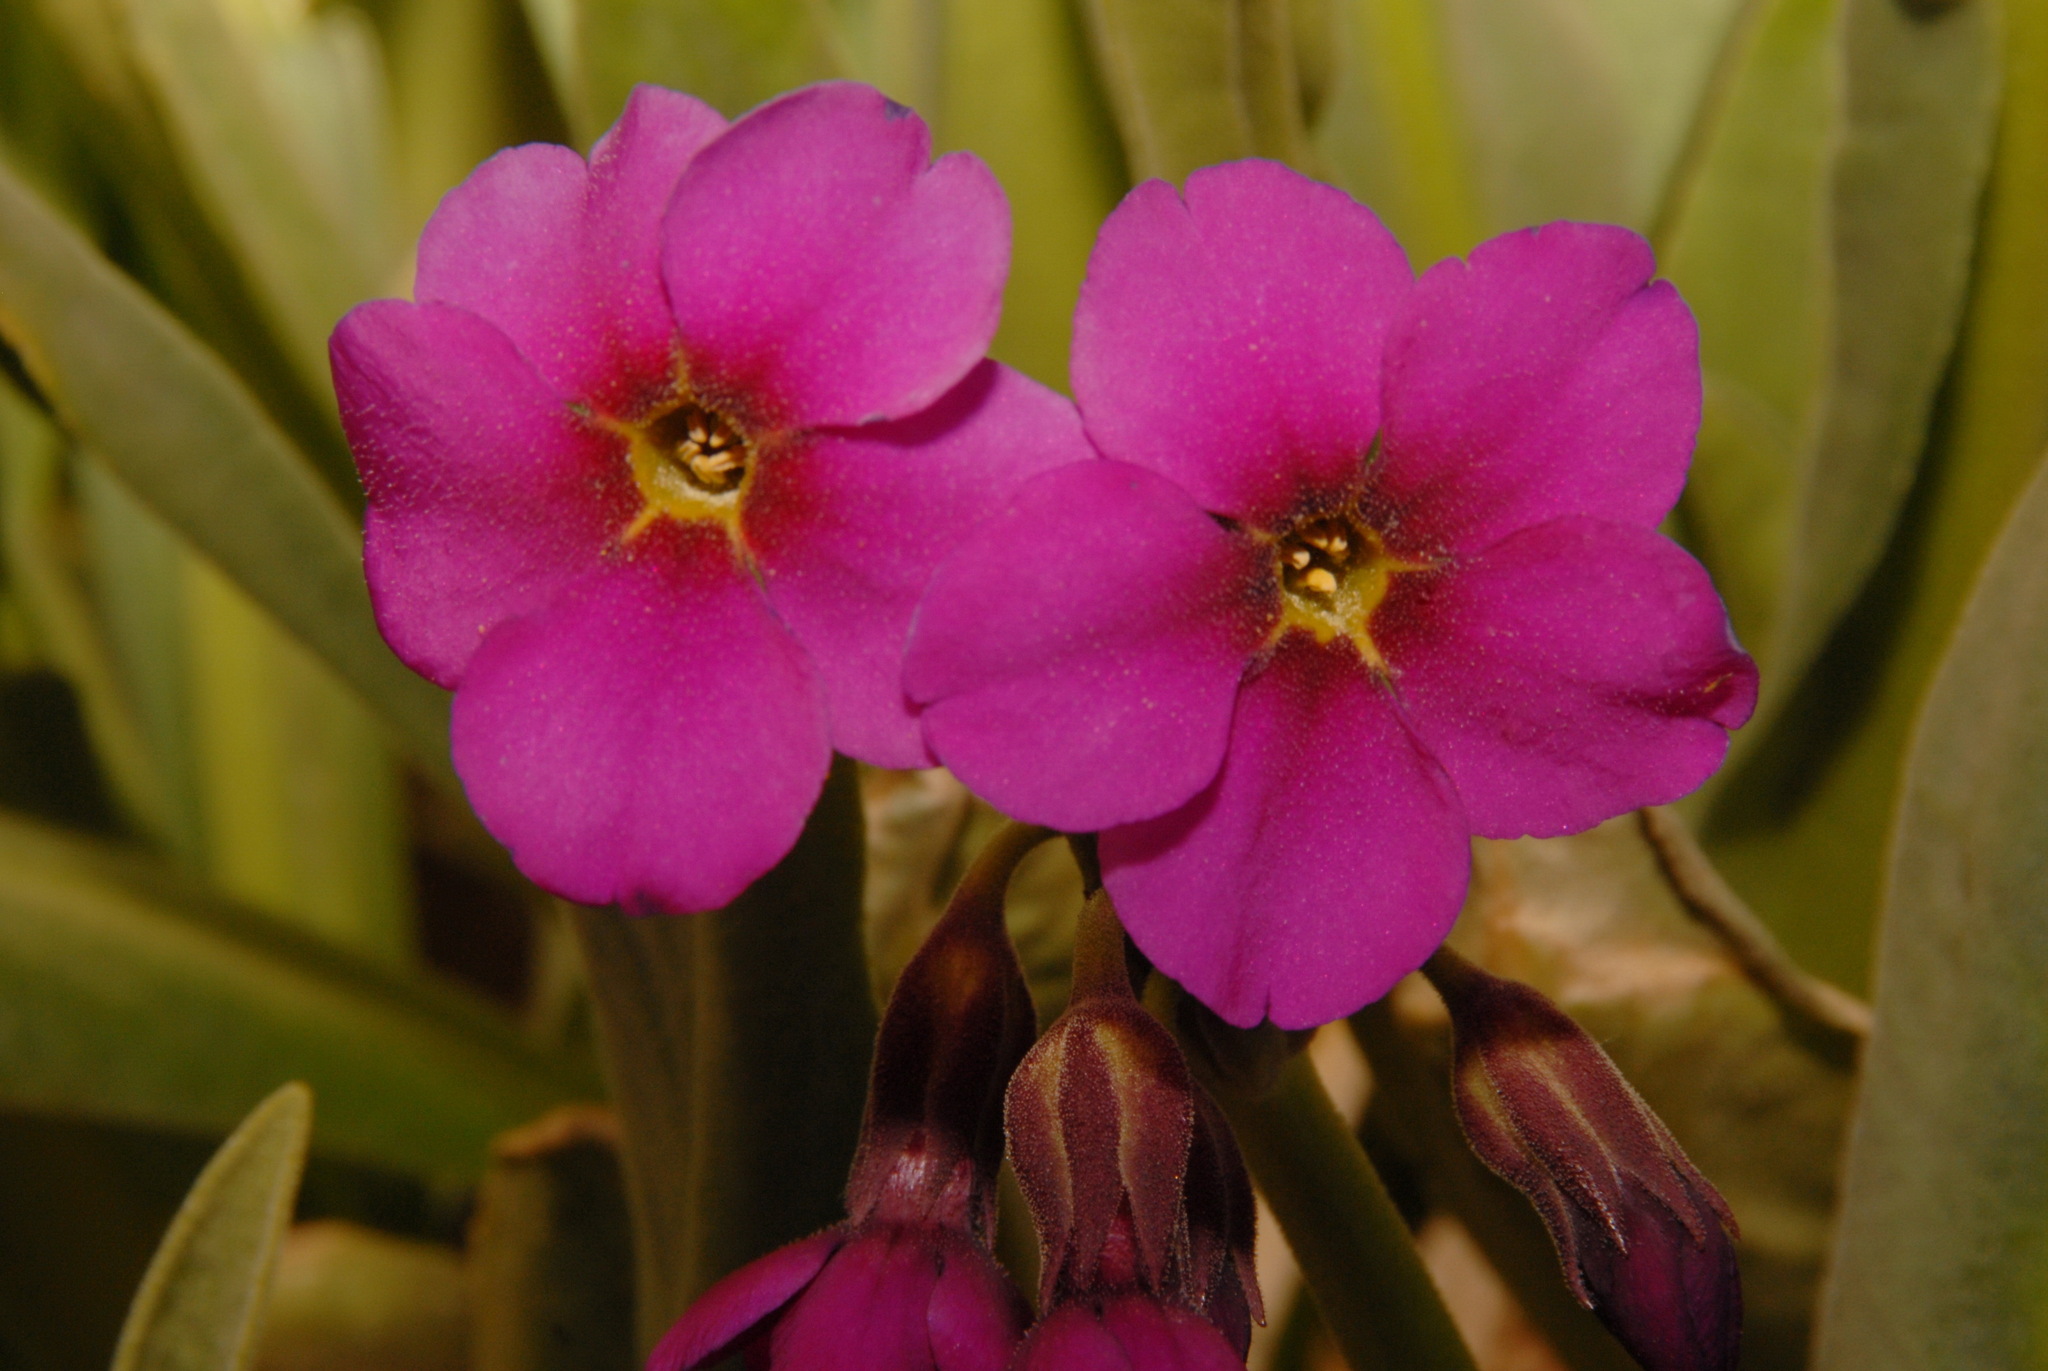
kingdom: Plantae
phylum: Tracheophyta
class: Magnoliopsida
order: Ericales
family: Primulaceae
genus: Primula
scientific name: Primula parryi
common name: Parry's primrose
